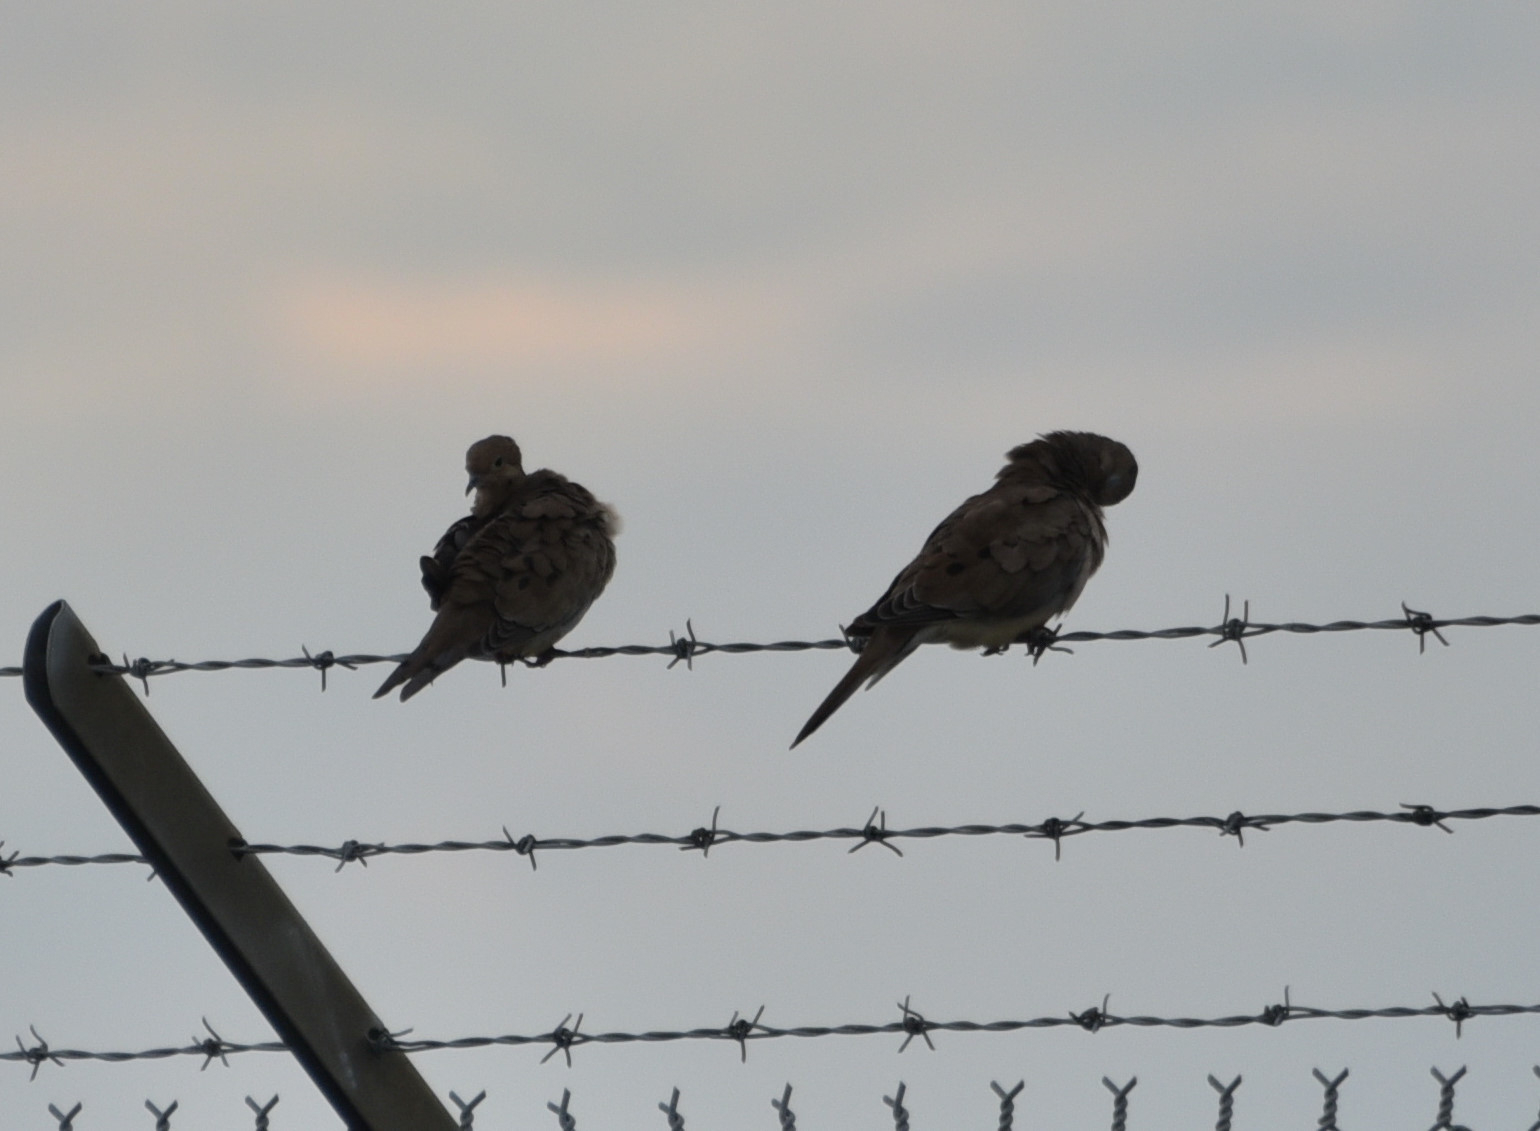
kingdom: Animalia
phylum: Chordata
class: Aves
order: Columbiformes
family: Columbidae
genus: Zenaida
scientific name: Zenaida macroura
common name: Mourning dove
